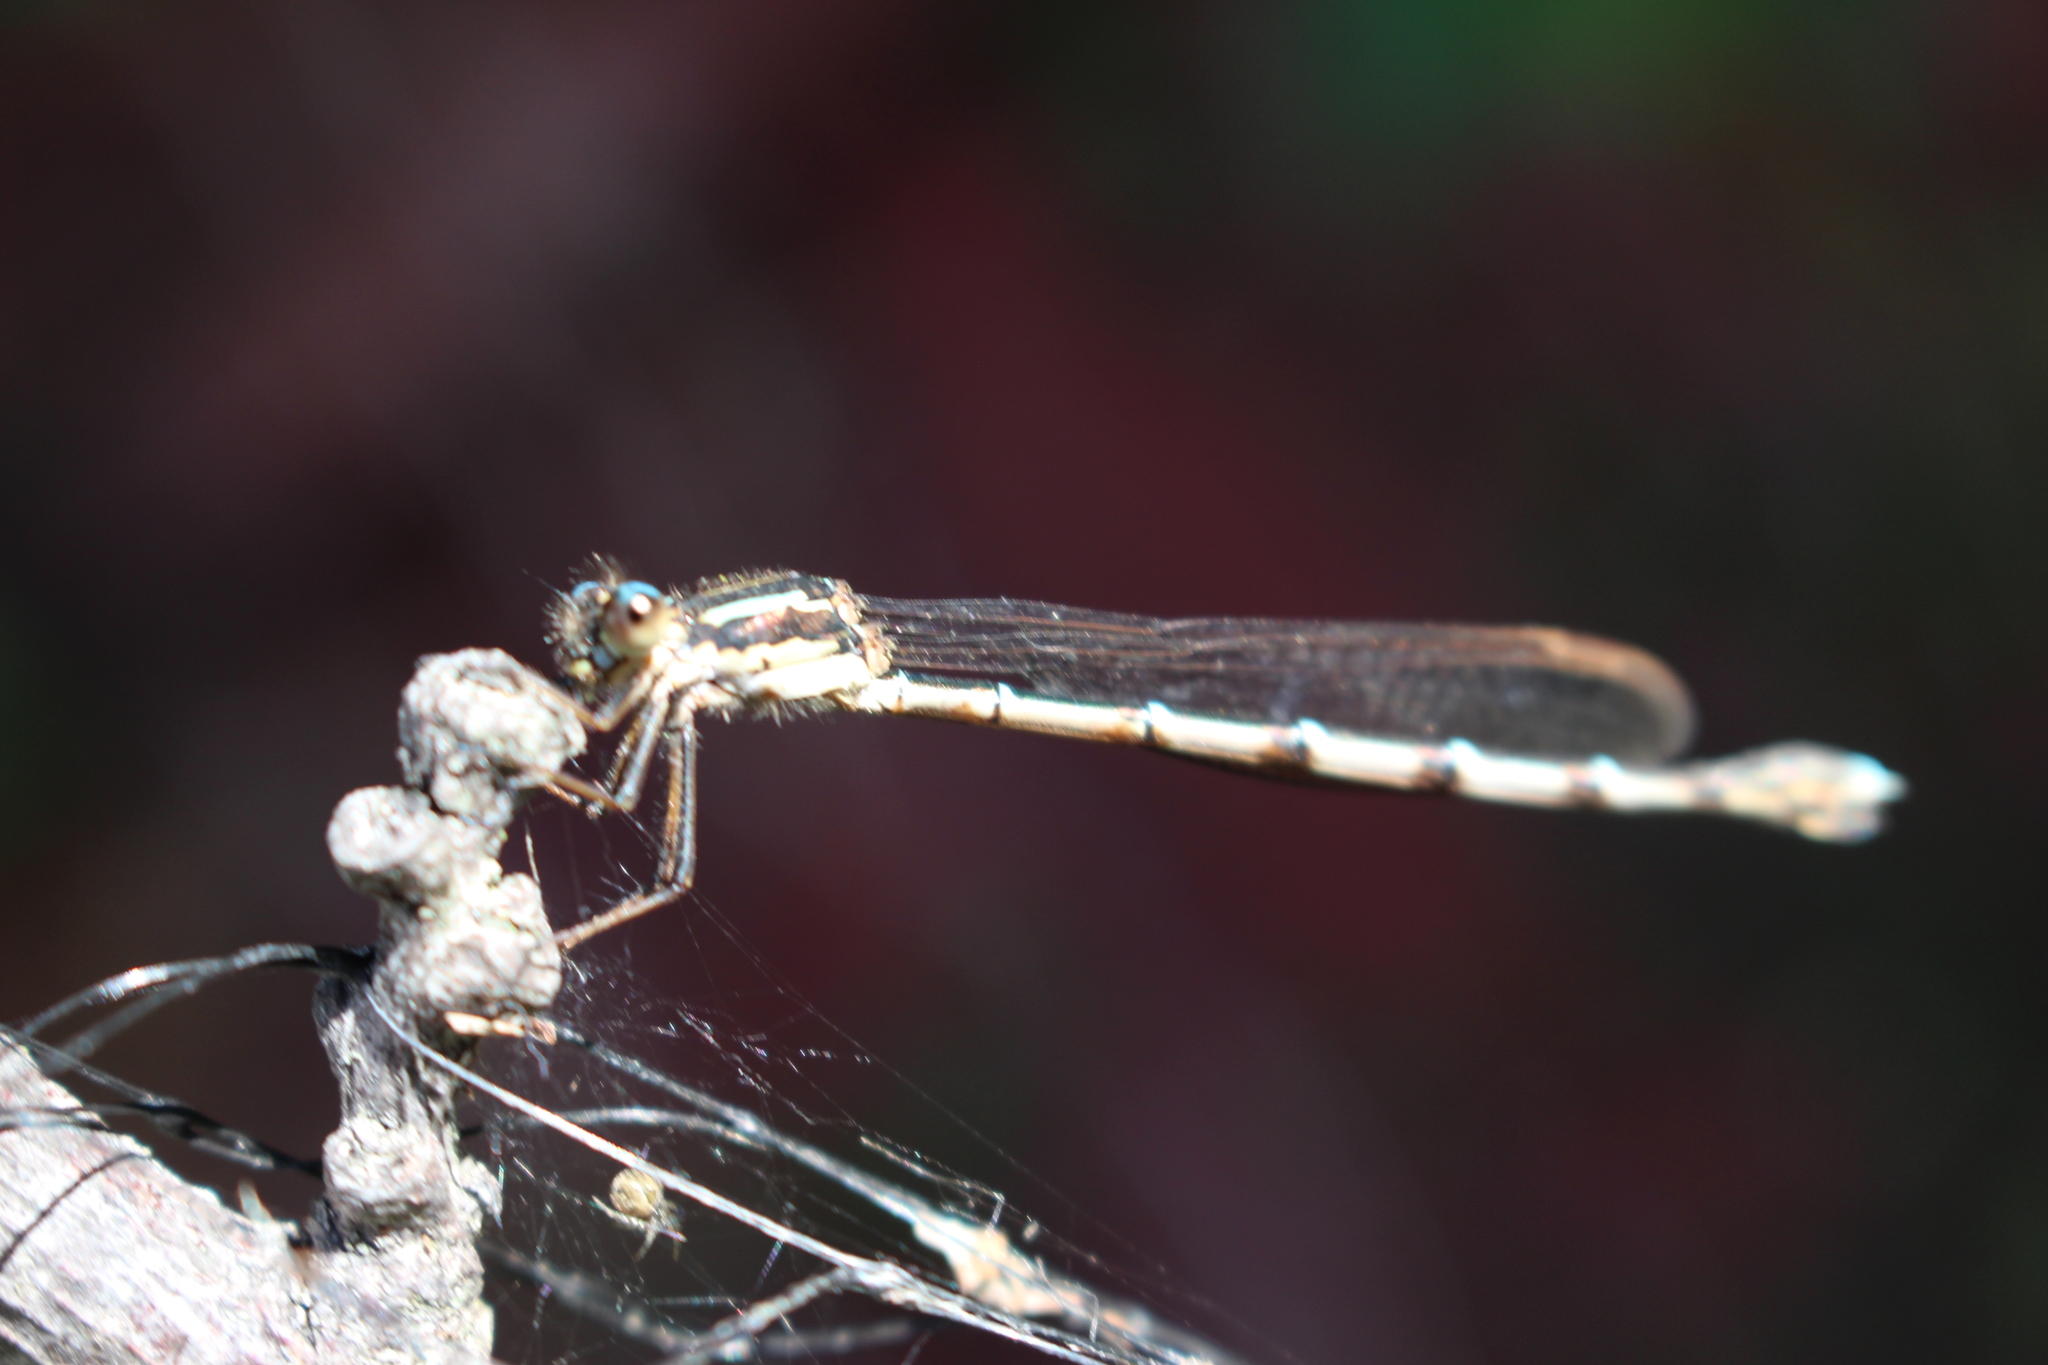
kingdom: Animalia
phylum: Arthropoda
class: Insecta
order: Odonata
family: Lestidae
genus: Austrolestes
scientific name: Austrolestes colensonis
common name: Blue damselfly
